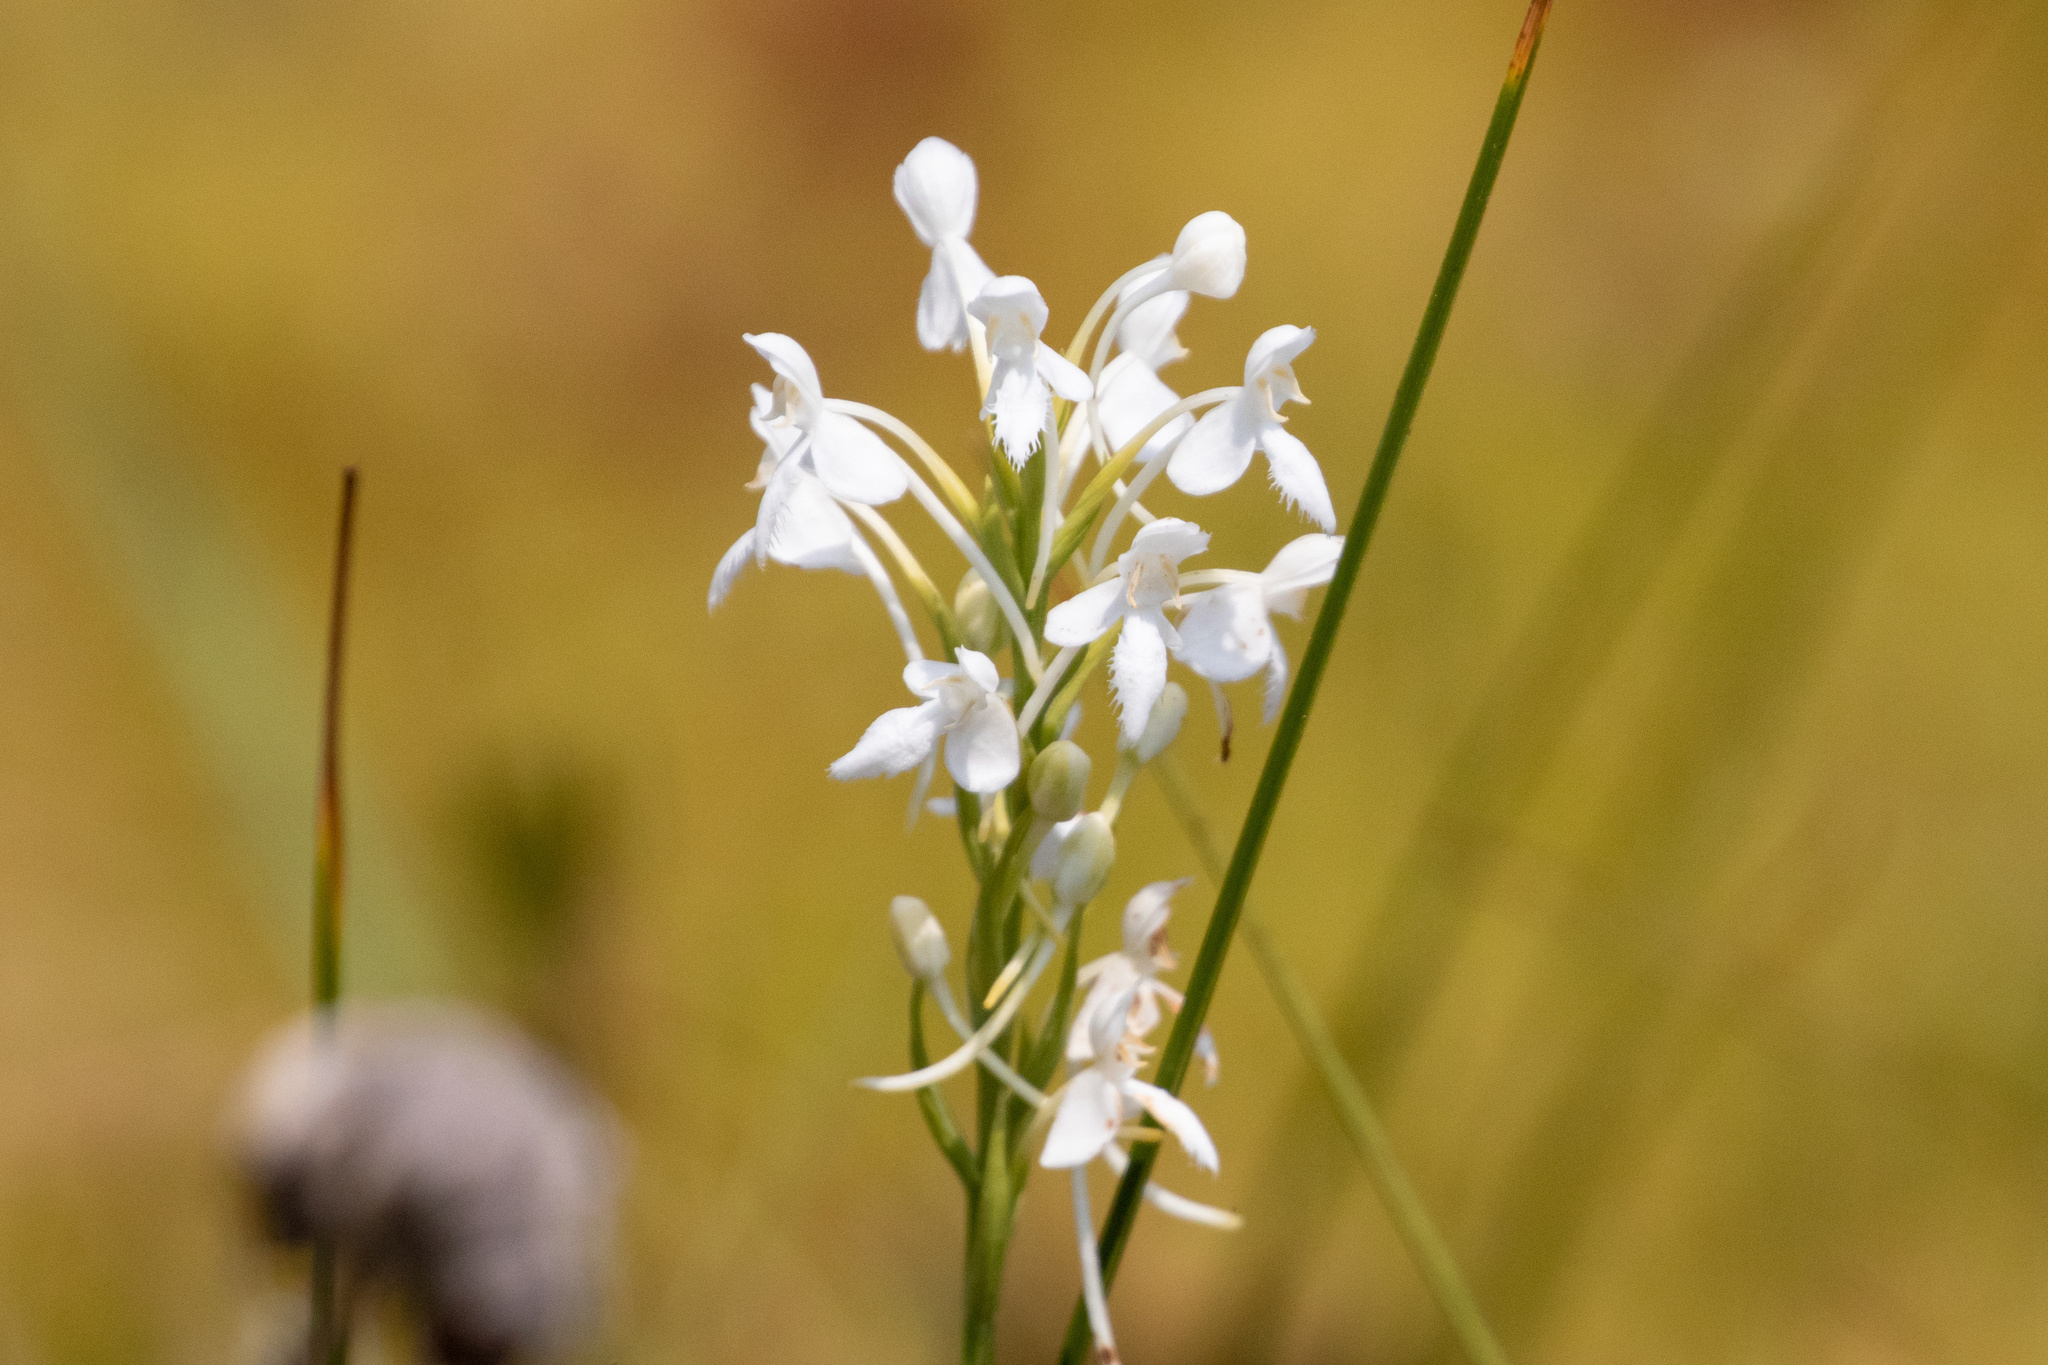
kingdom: Plantae
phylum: Tracheophyta
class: Liliopsida
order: Asparagales
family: Orchidaceae
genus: Platanthera
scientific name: Platanthera blephariglottis
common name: White fringed orchid
